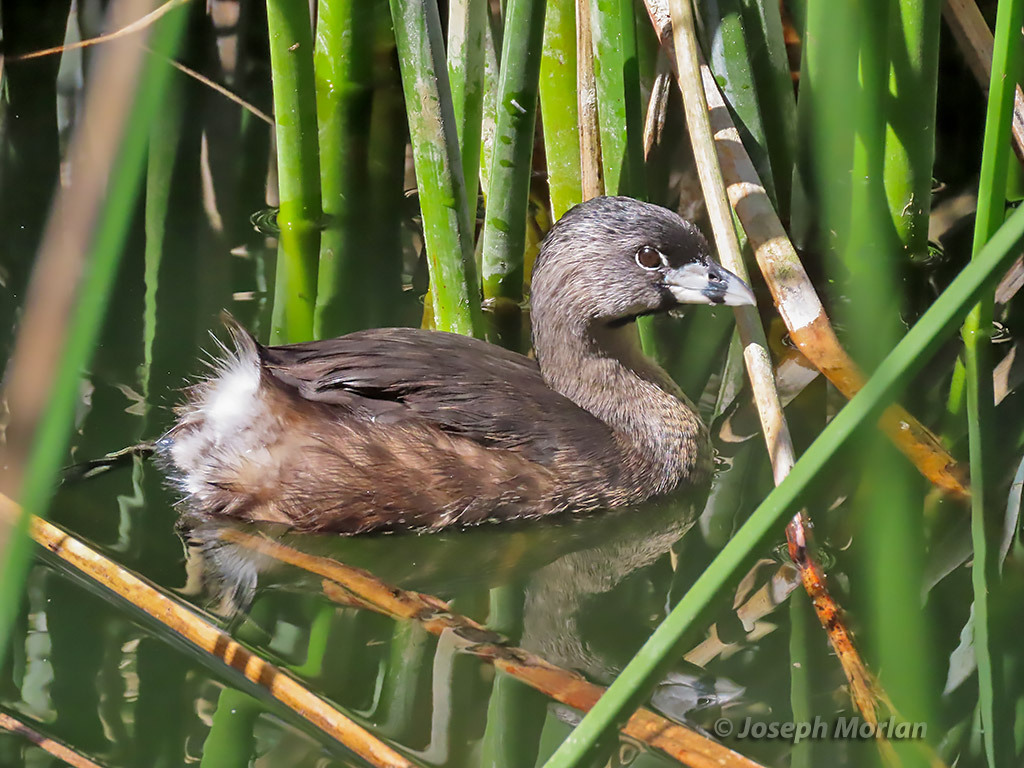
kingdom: Animalia
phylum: Chordata
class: Aves
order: Podicipediformes
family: Podicipedidae
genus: Podilymbus
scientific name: Podilymbus podiceps
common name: Pied-billed grebe
